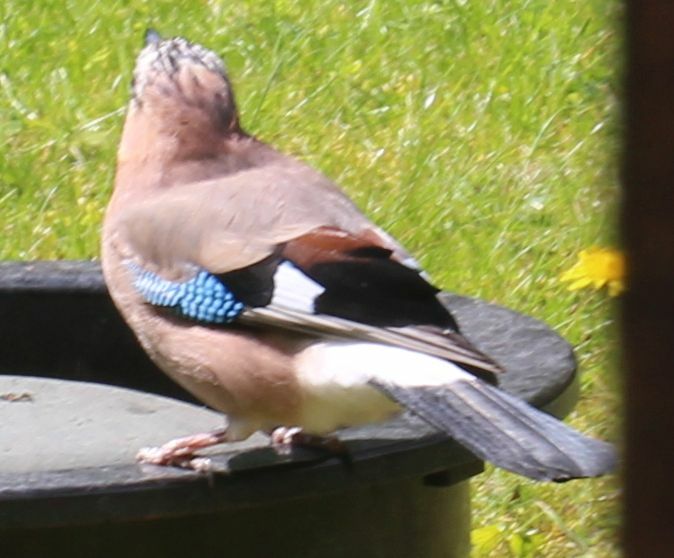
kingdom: Animalia
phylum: Chordata
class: Aves
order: Passeriformes
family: Corvidae
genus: Garrulus
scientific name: Garrulus glandarius
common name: Eurasian jay
